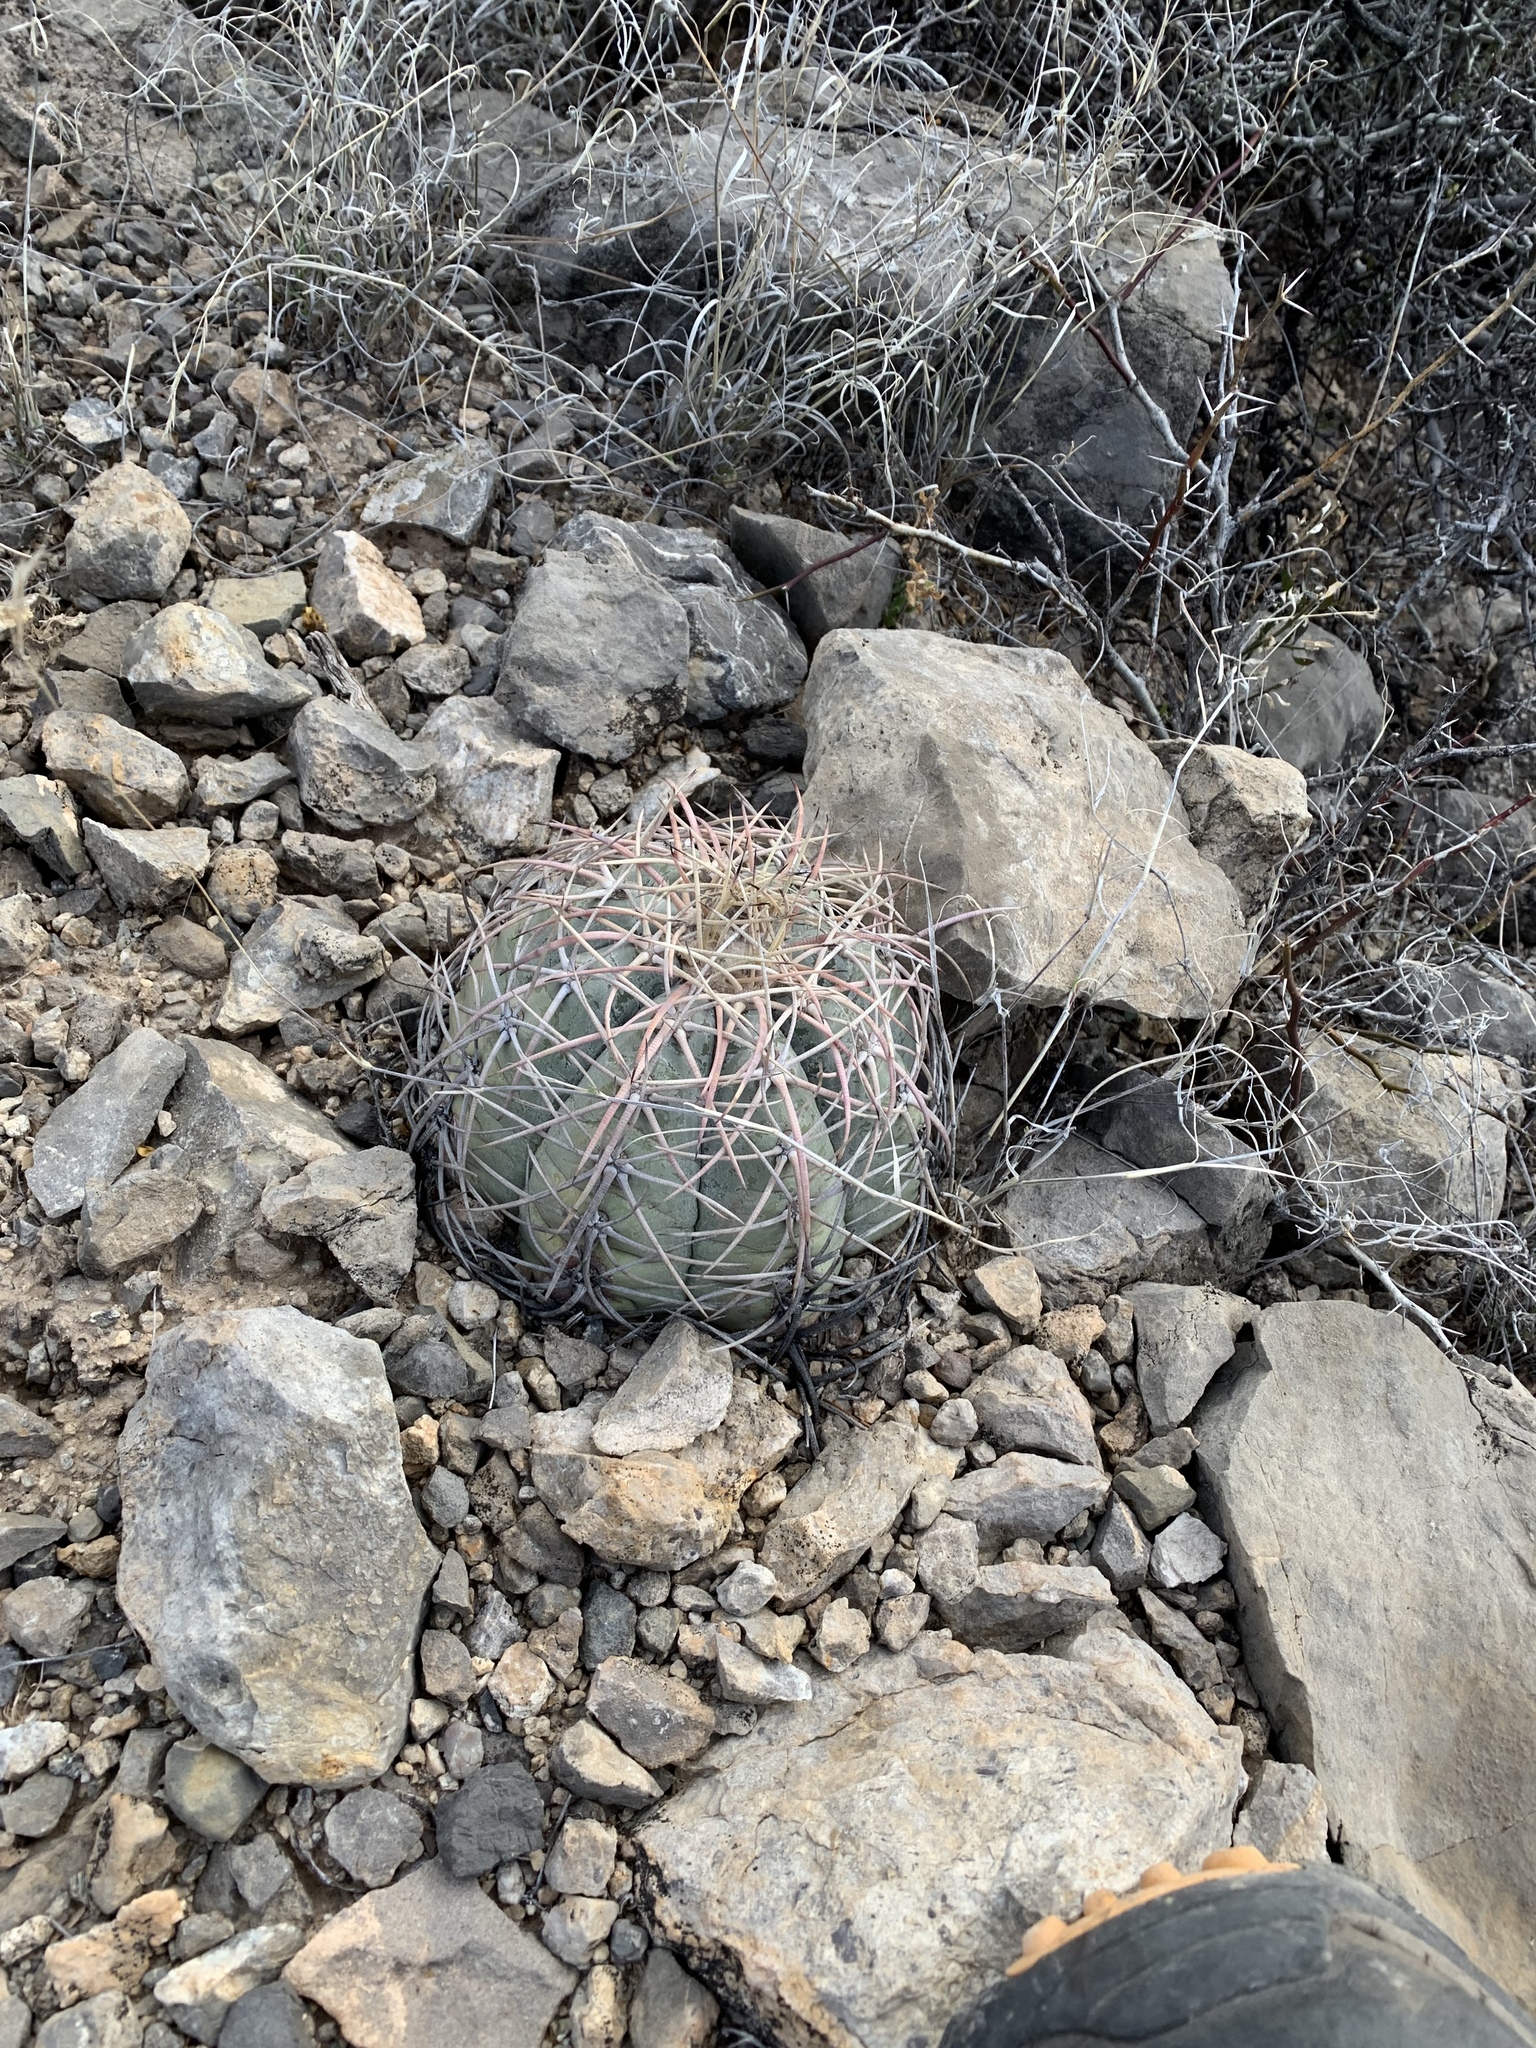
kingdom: Plantae
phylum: Tracheophyta
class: Magnoliopsida
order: Caryophyllales
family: Cactaceae
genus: Echinocactus
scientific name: Echinocactus horizonthalonius
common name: Devilshead
